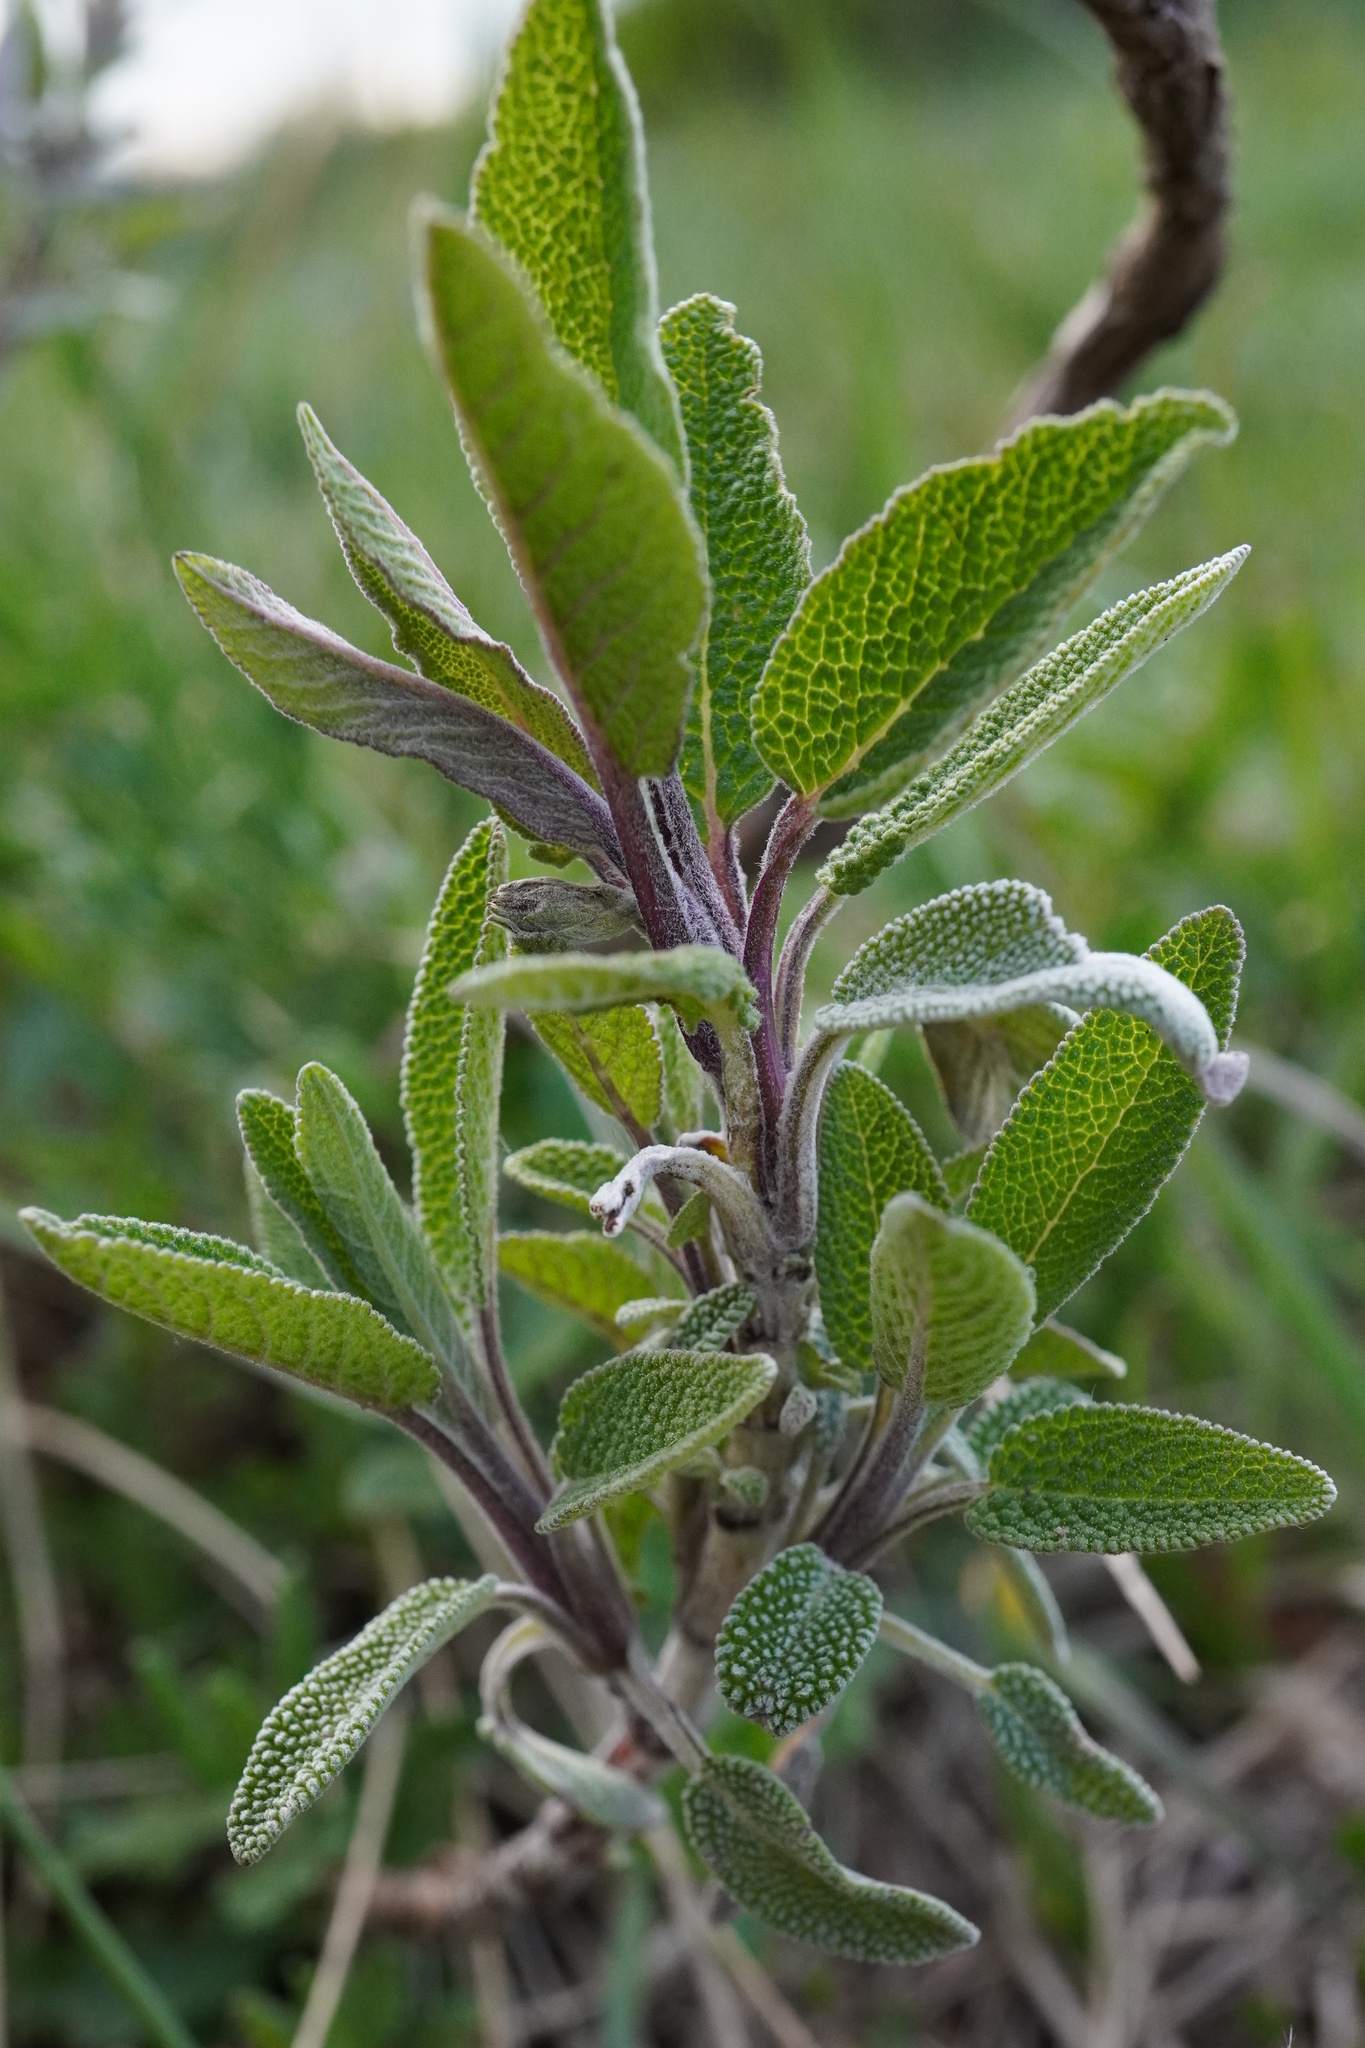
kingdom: Plantae
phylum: Tracheophyta
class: Magnoliopsida
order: Lamiales
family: Lamiaceae
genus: Salvia
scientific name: Salvia officinalis
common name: Sage
